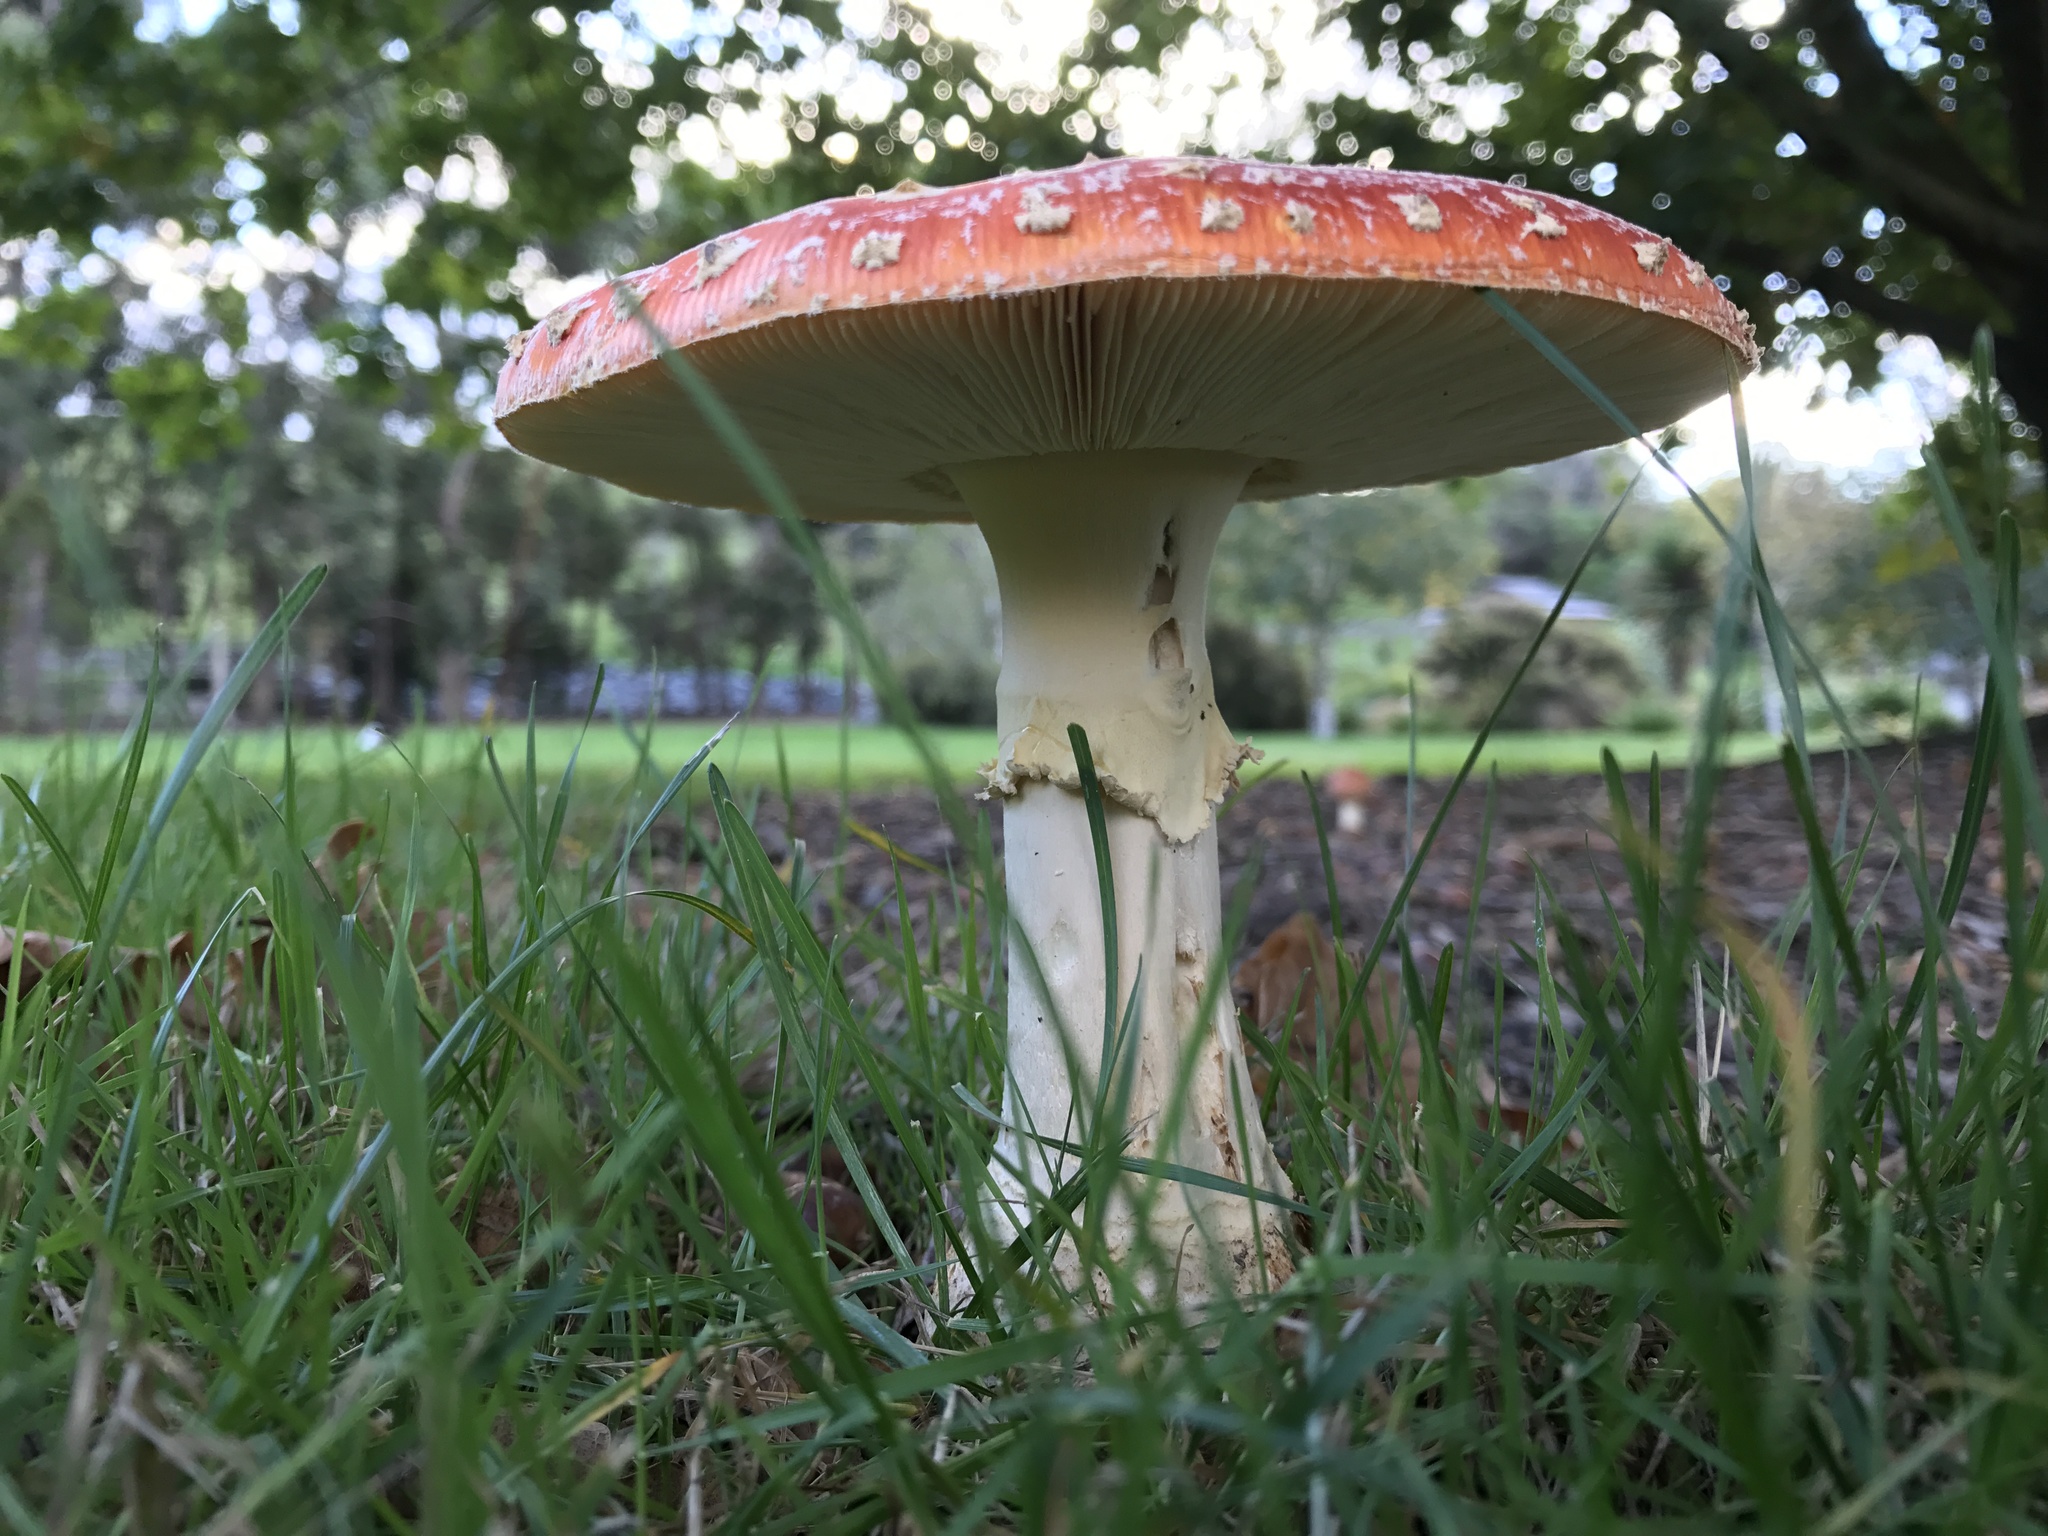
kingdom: Fungi
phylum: Basidiomycota
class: Agaricomycetes
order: Agaricales
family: Amanitaceae
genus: Amanita
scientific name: Amanita muscaria
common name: Fly agaric
